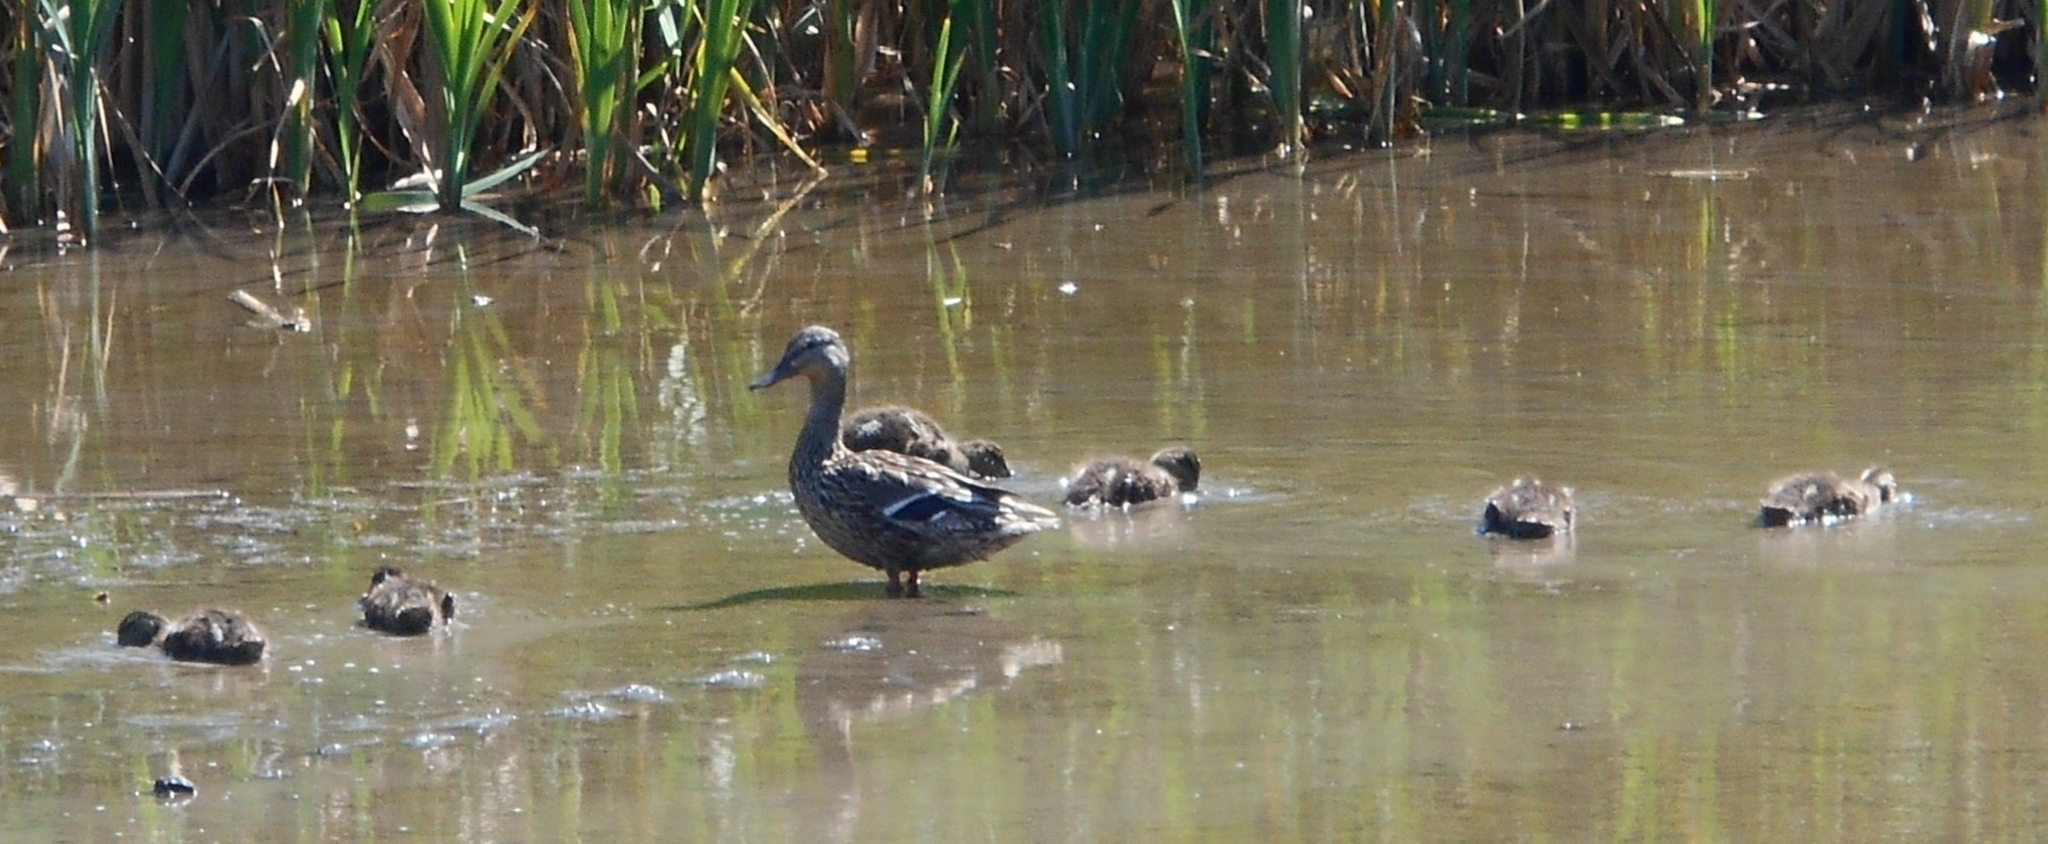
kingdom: Animalia
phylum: Chordata
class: Aves
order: Anseriformes
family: Anatidae
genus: Anas
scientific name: Anas platyrhynchos
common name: Mallard
